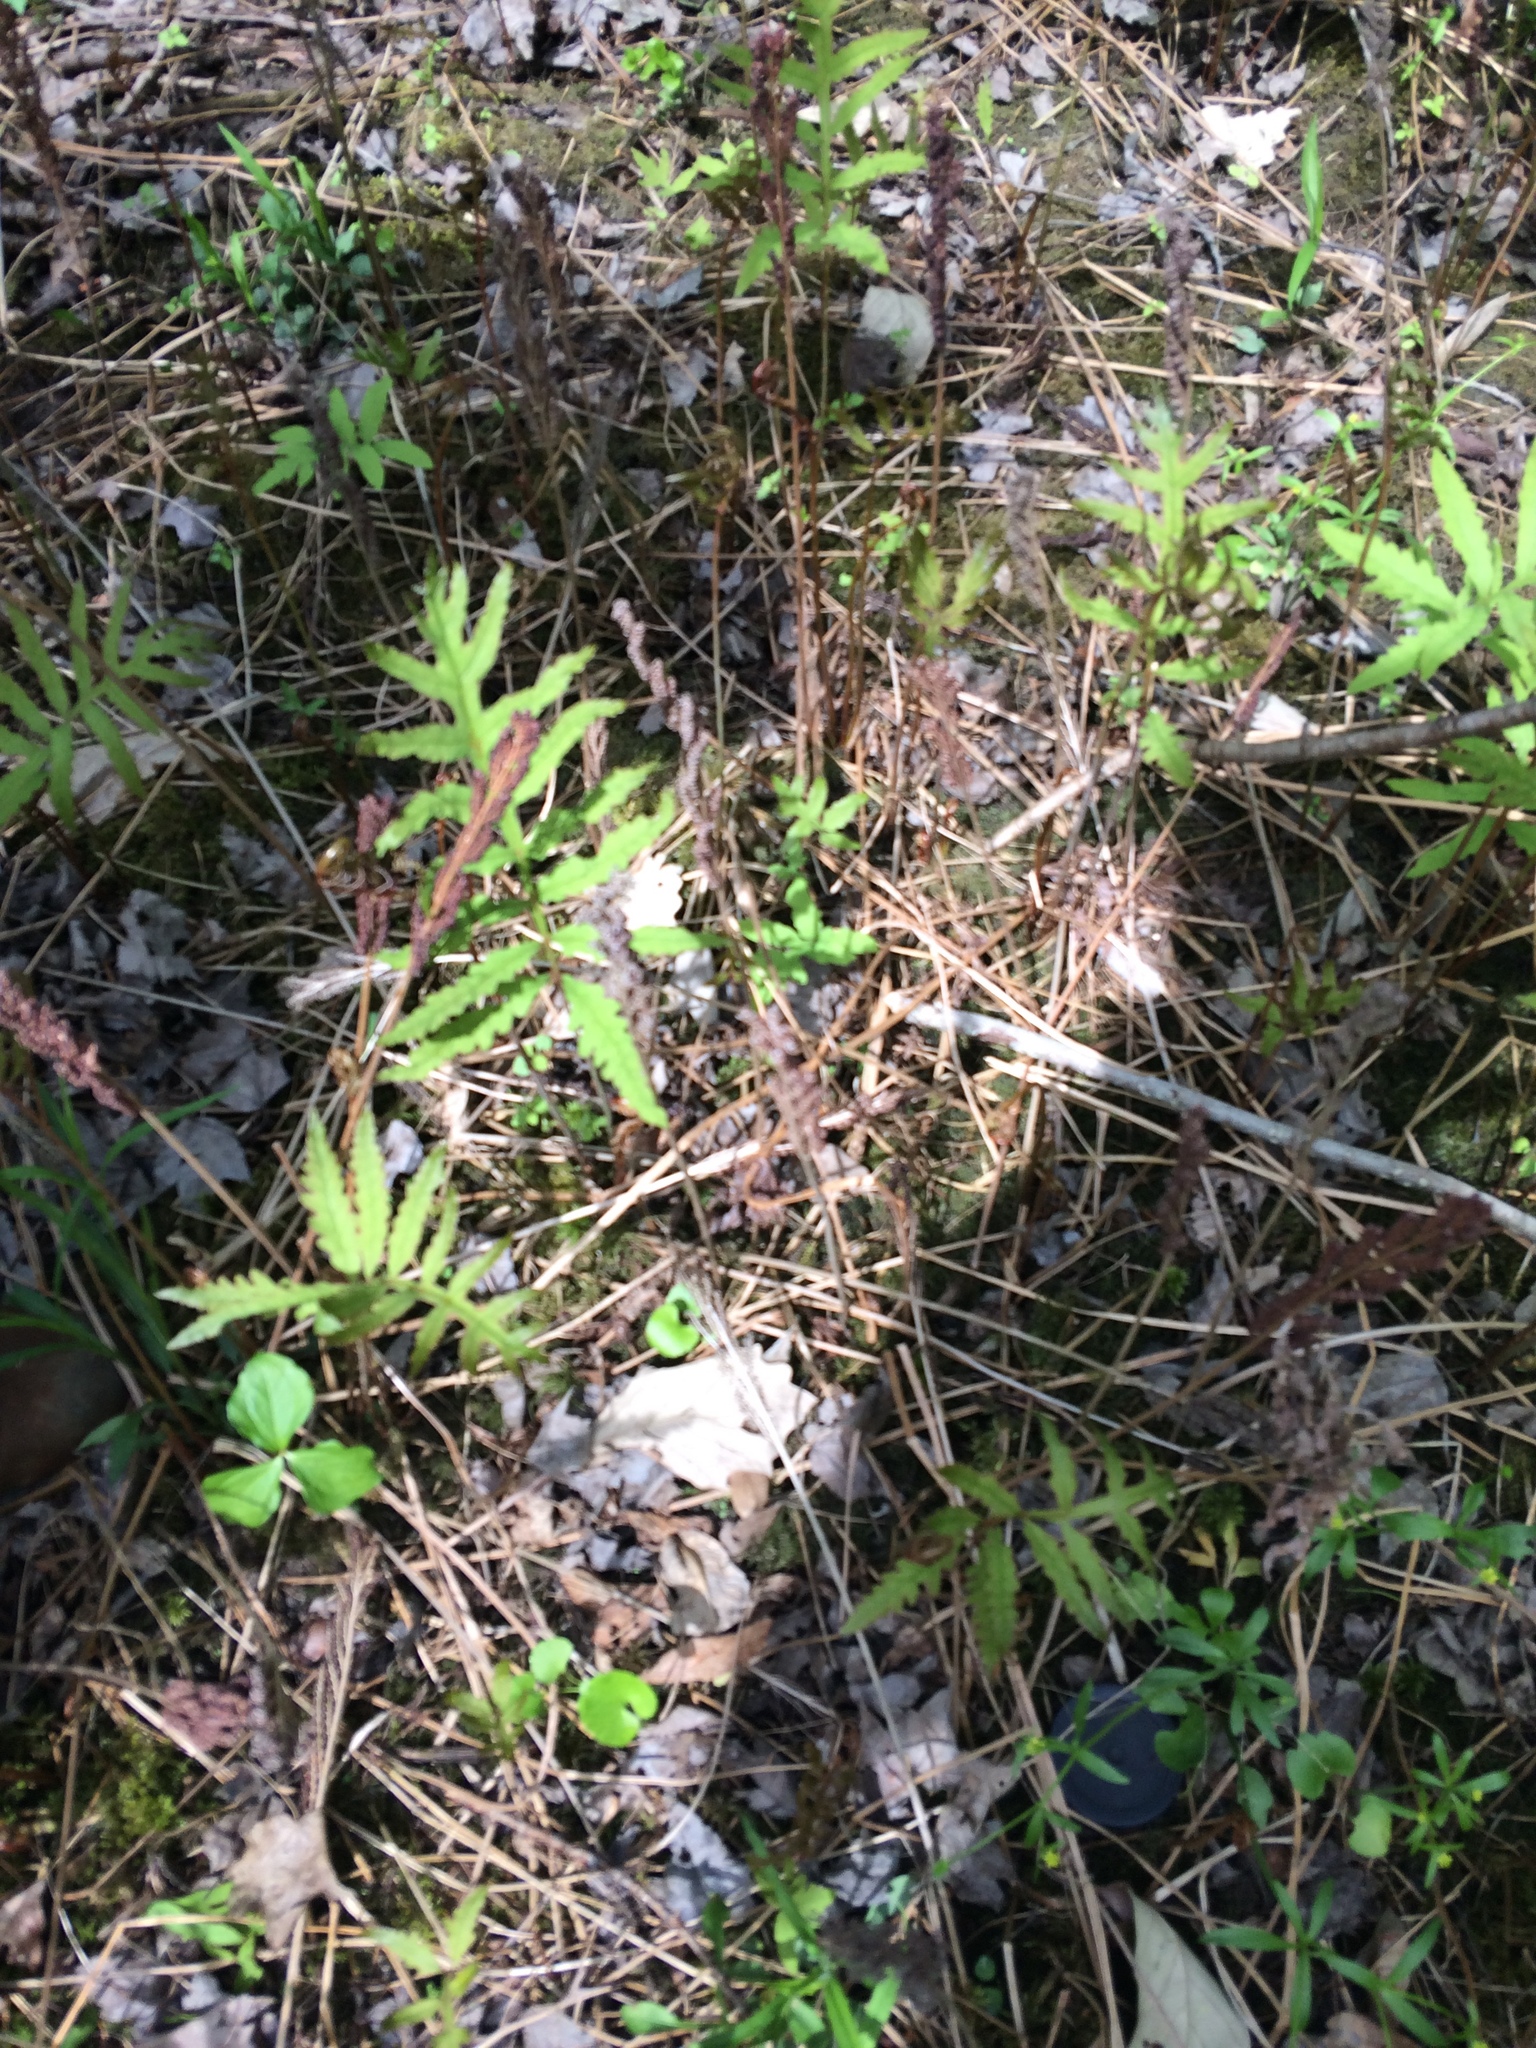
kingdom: Plantae
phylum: Tracheophyta
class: Polypodiopsida
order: Polypodiales
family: Onocleaceae
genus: Onoclea
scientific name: Onoclea sensibilis
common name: Sensitive fern
